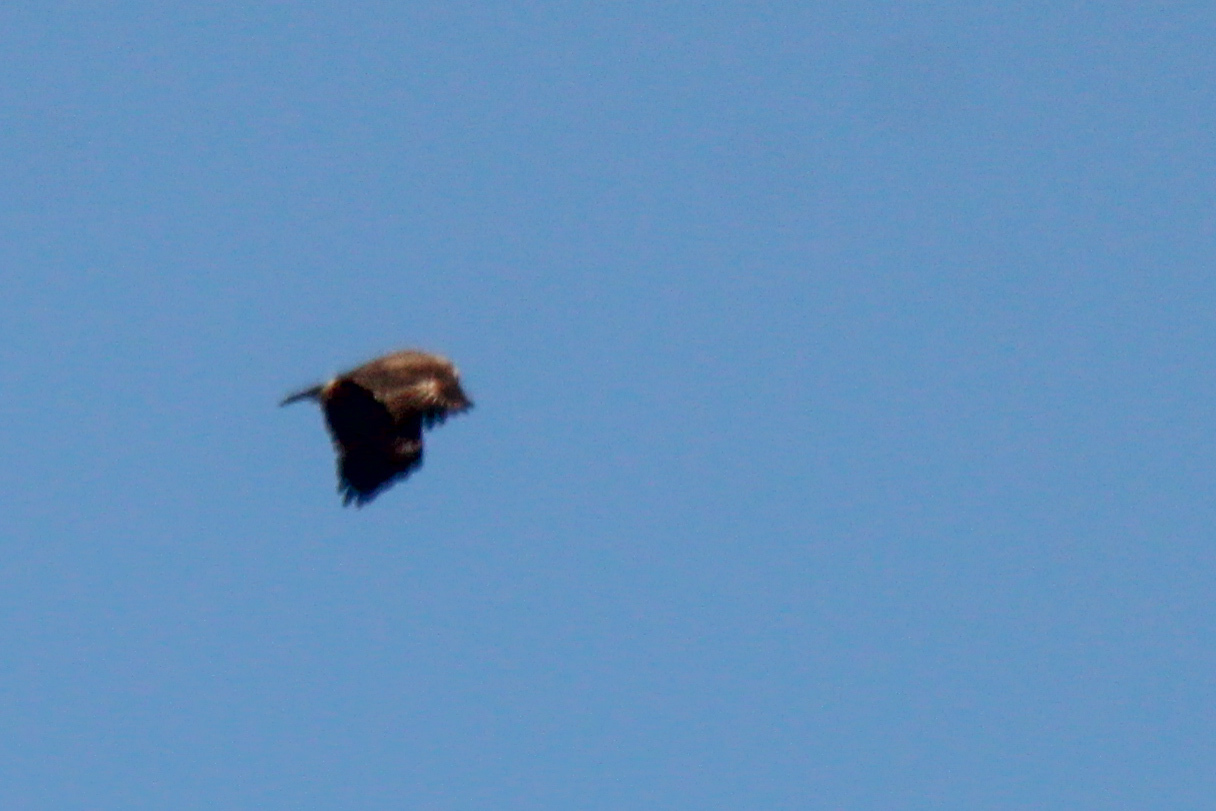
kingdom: Animalia
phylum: Chordata
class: Aves
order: Accipitriformes
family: Accipitridae
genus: Aquila
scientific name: Aquila clanga
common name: Greater spotted eagle
